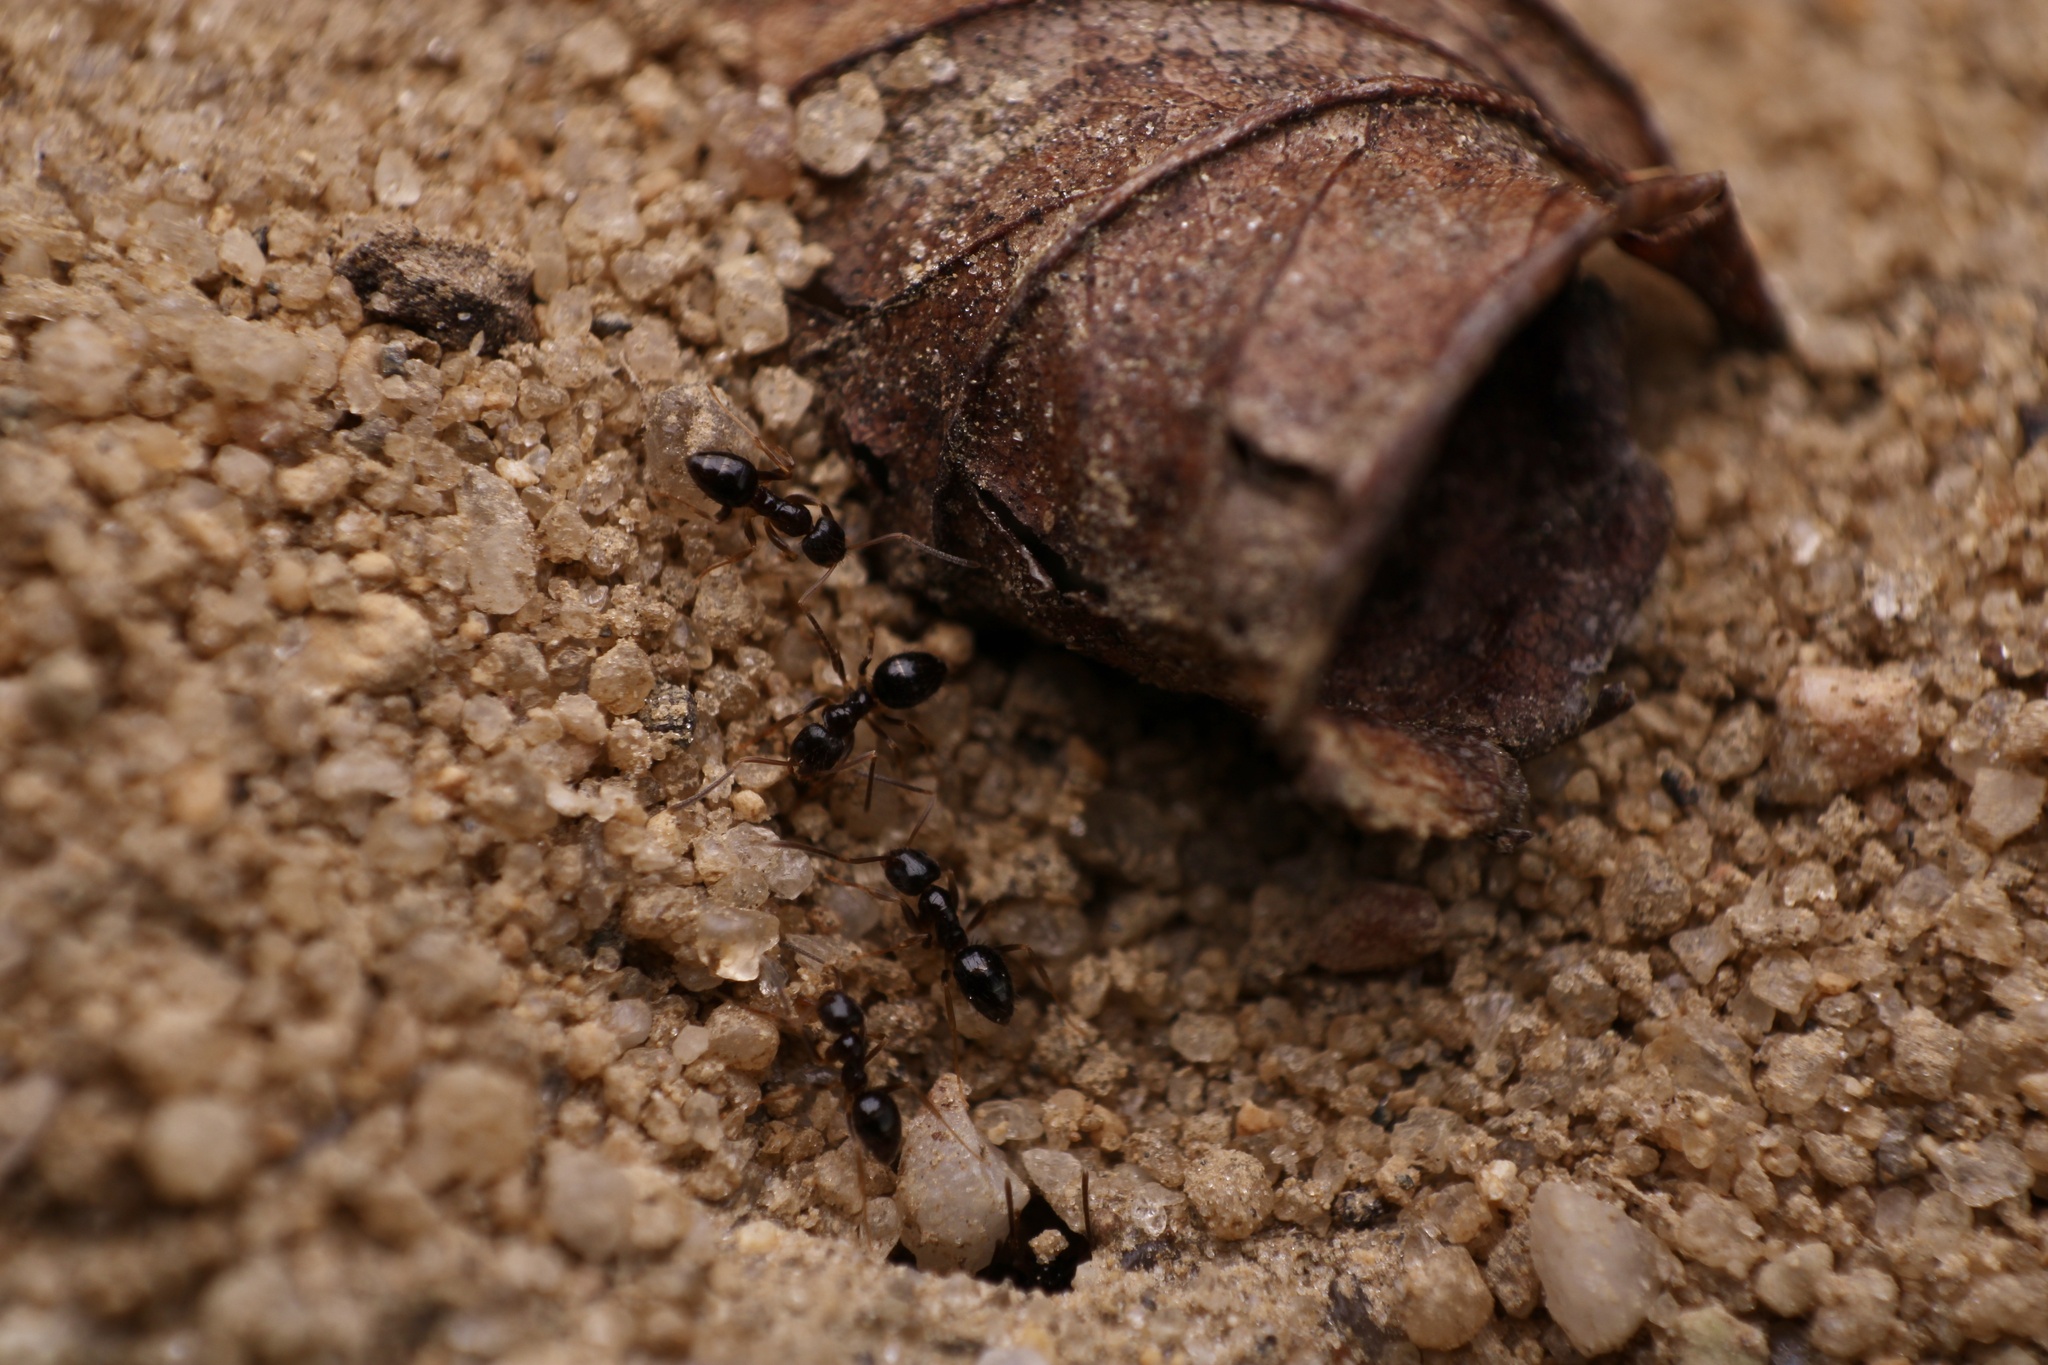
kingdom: Animalia
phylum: Arthropoda
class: Insecta
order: Hymenoptera
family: Formicidae
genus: Nylanderia
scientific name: Nylanderia parvula
